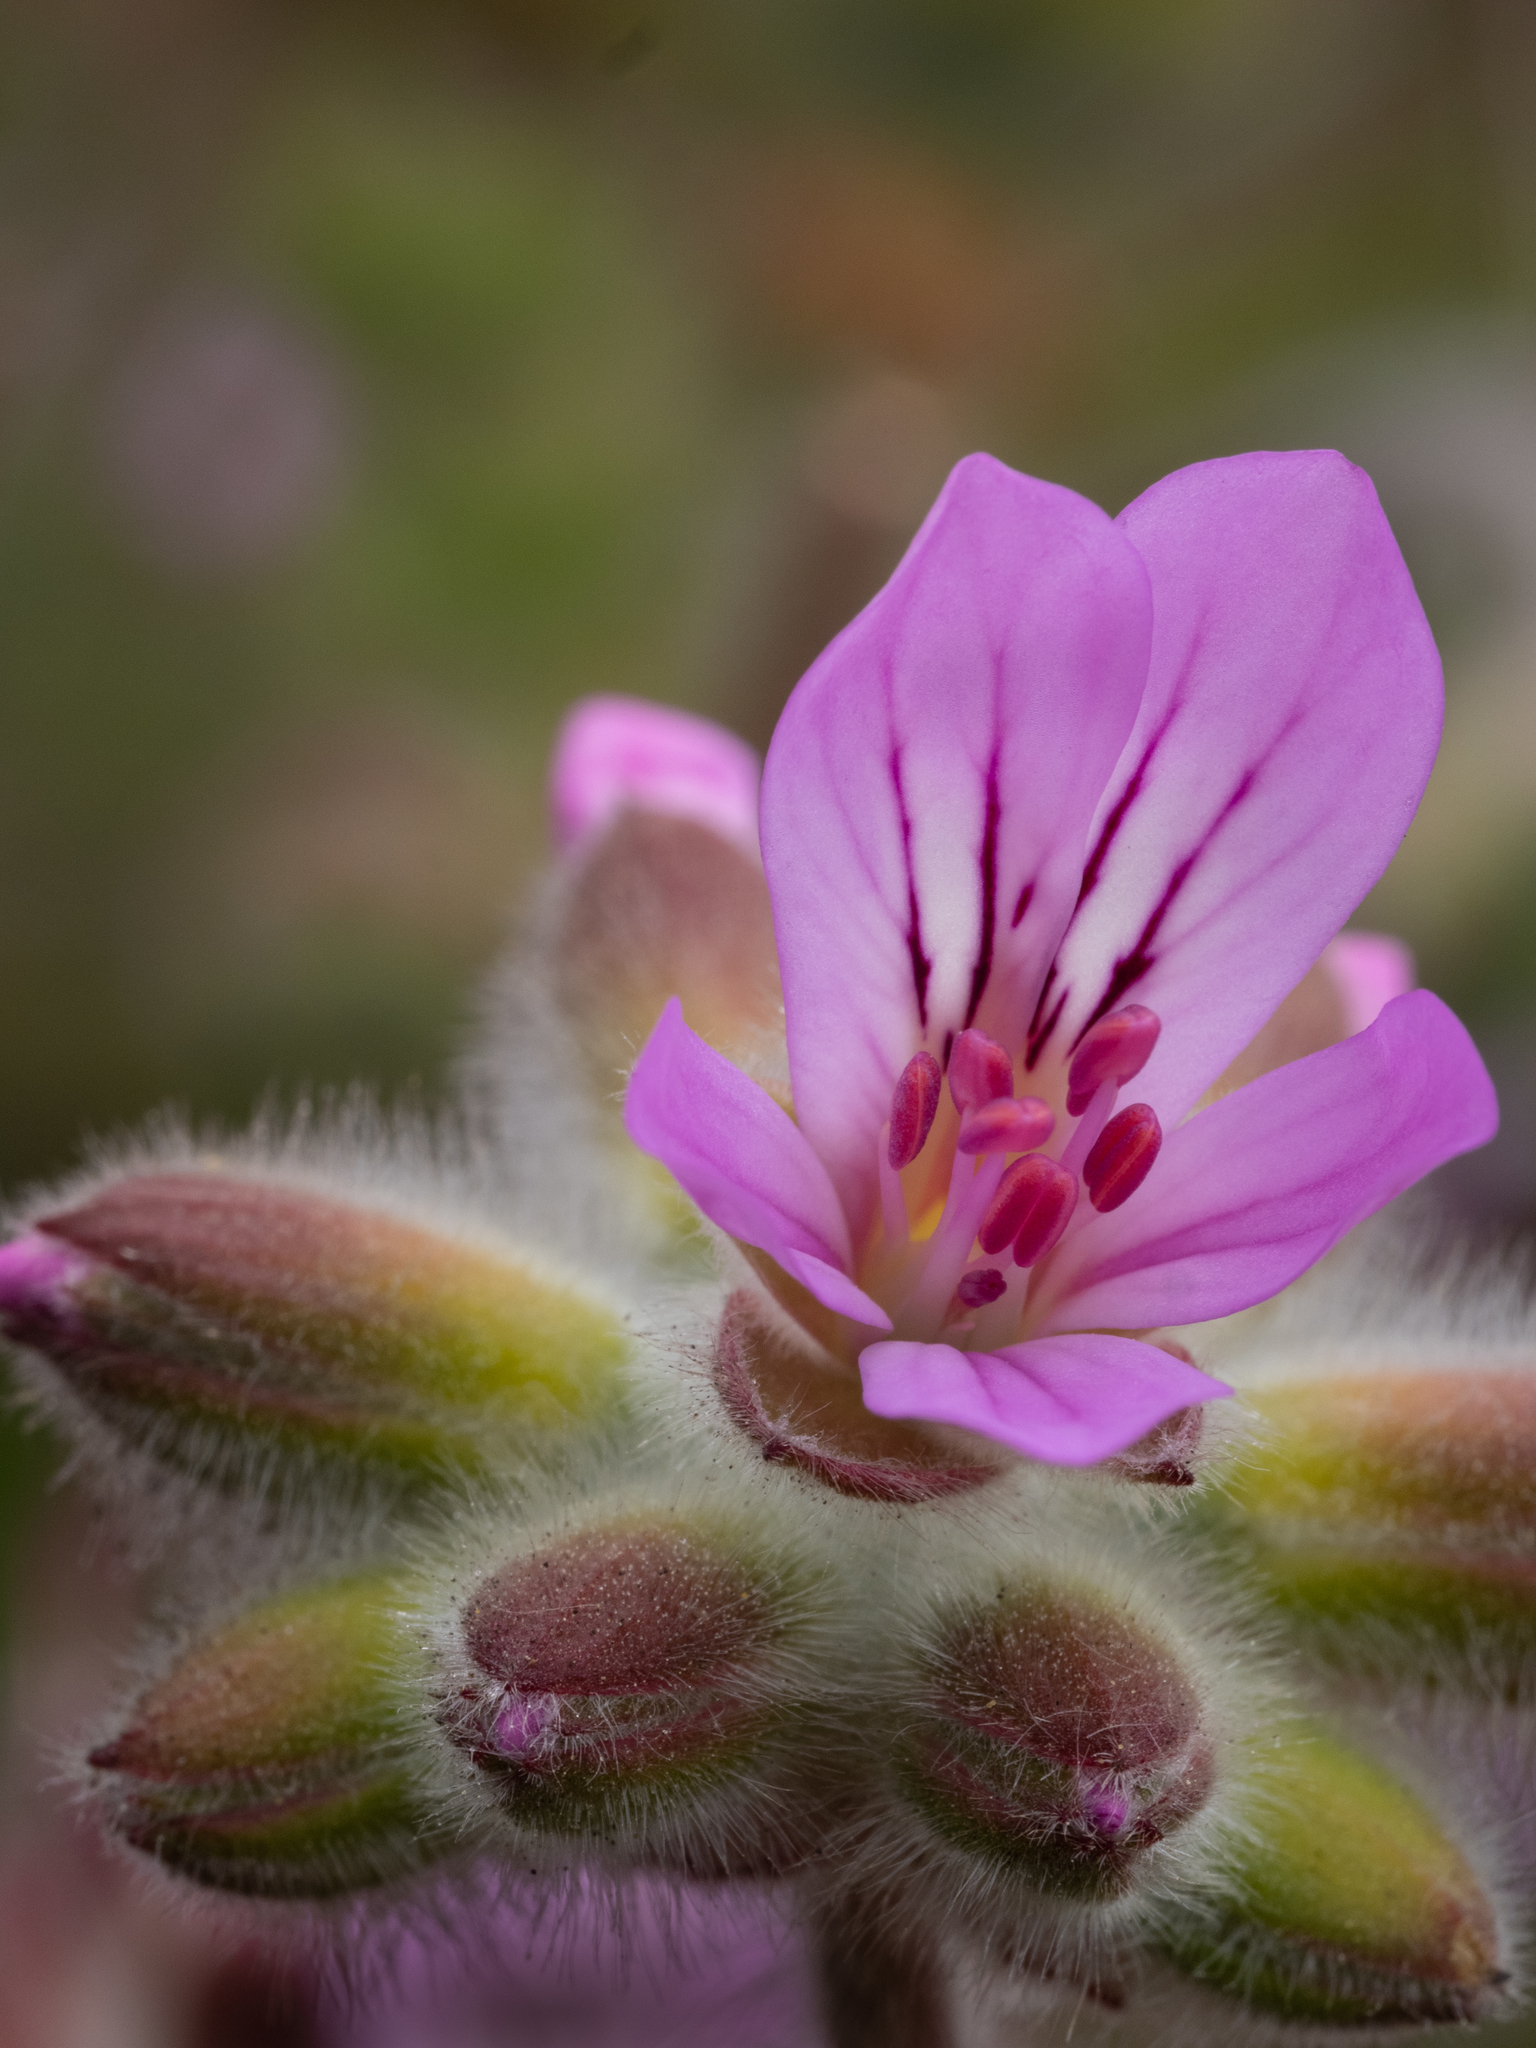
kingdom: Plantae
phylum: Tracheophyta
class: Magnoliopsida
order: Geraniales
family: Geraniaceae
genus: Pelargonium
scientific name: Pelargonium capitatum
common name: Rose scented geranium
